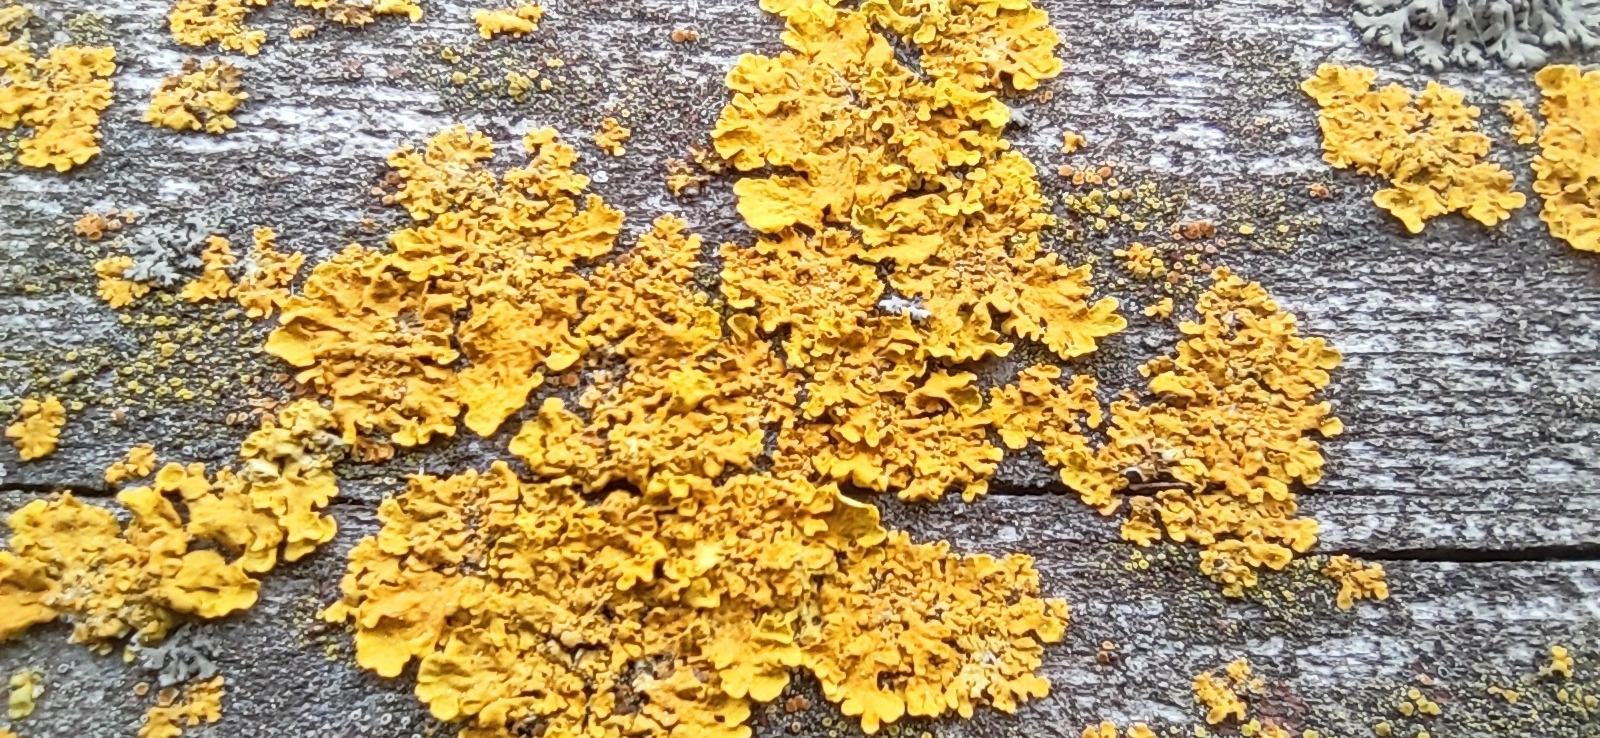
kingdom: Fungi
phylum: Ascomycota
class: Lecanoromycetes
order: Teloschistales
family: Teloschistaceae
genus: Xanthoria
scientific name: Xanthoria parietina
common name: Common orange lichen
